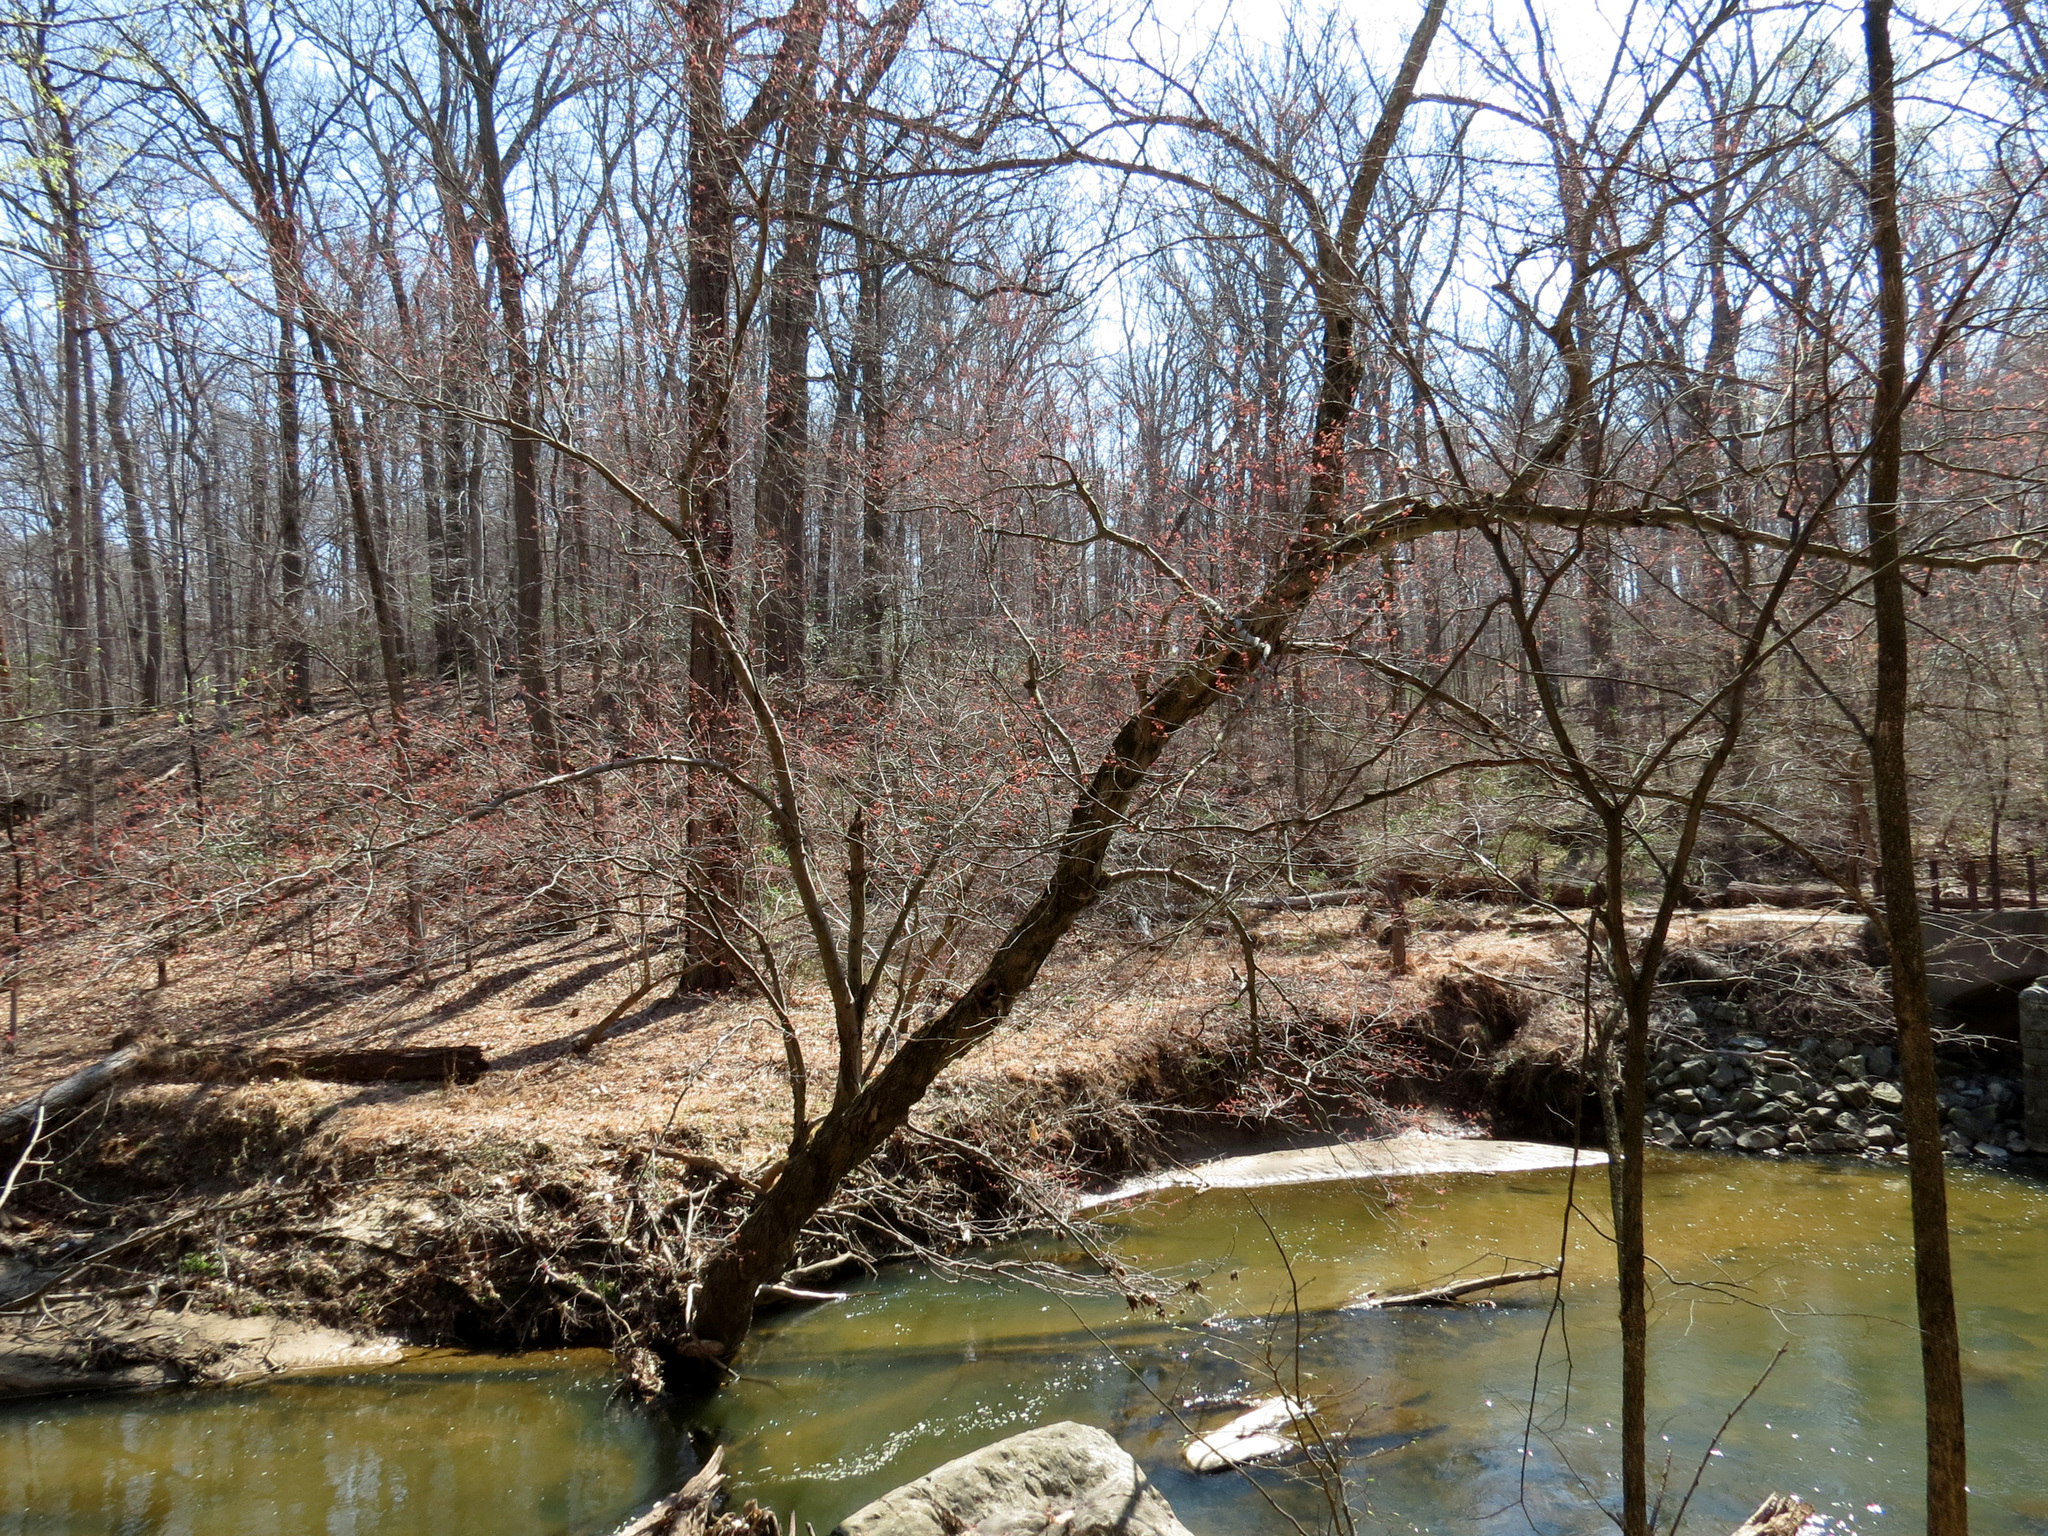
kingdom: Plantae
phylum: Tracheophyta
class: Magnoliopsida
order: Sapindales
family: Sapindaceae
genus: Acer
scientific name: Acer rubrum
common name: Red maple
